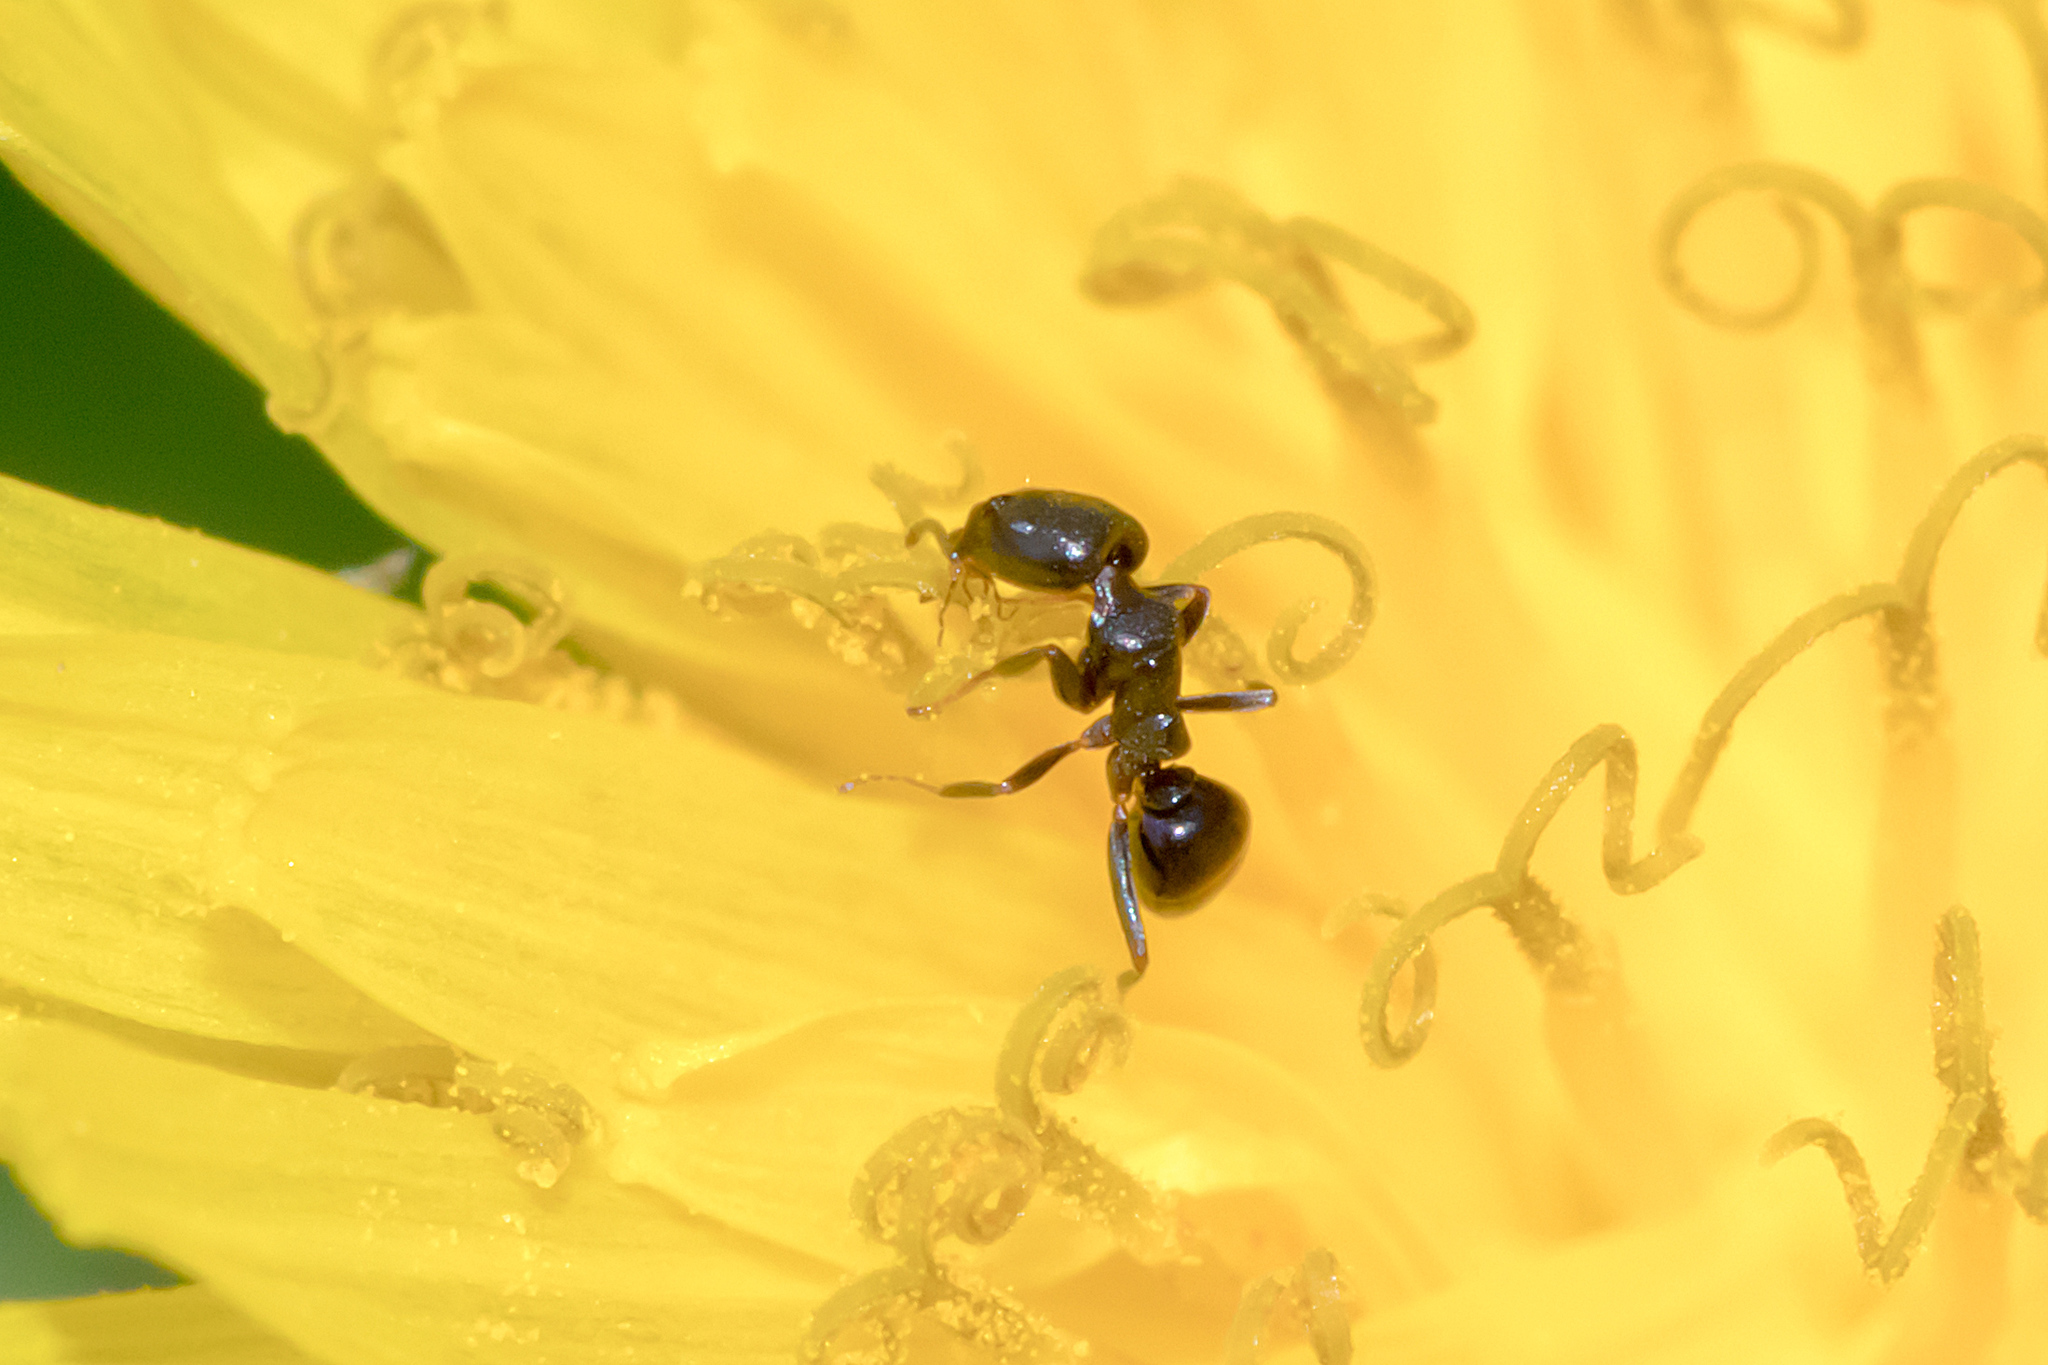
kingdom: Animalia
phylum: Arthropoda
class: Insecta
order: Hymenoptera
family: Formicidae
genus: Ochetellus
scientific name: Ochetellus glaber
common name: Ant
